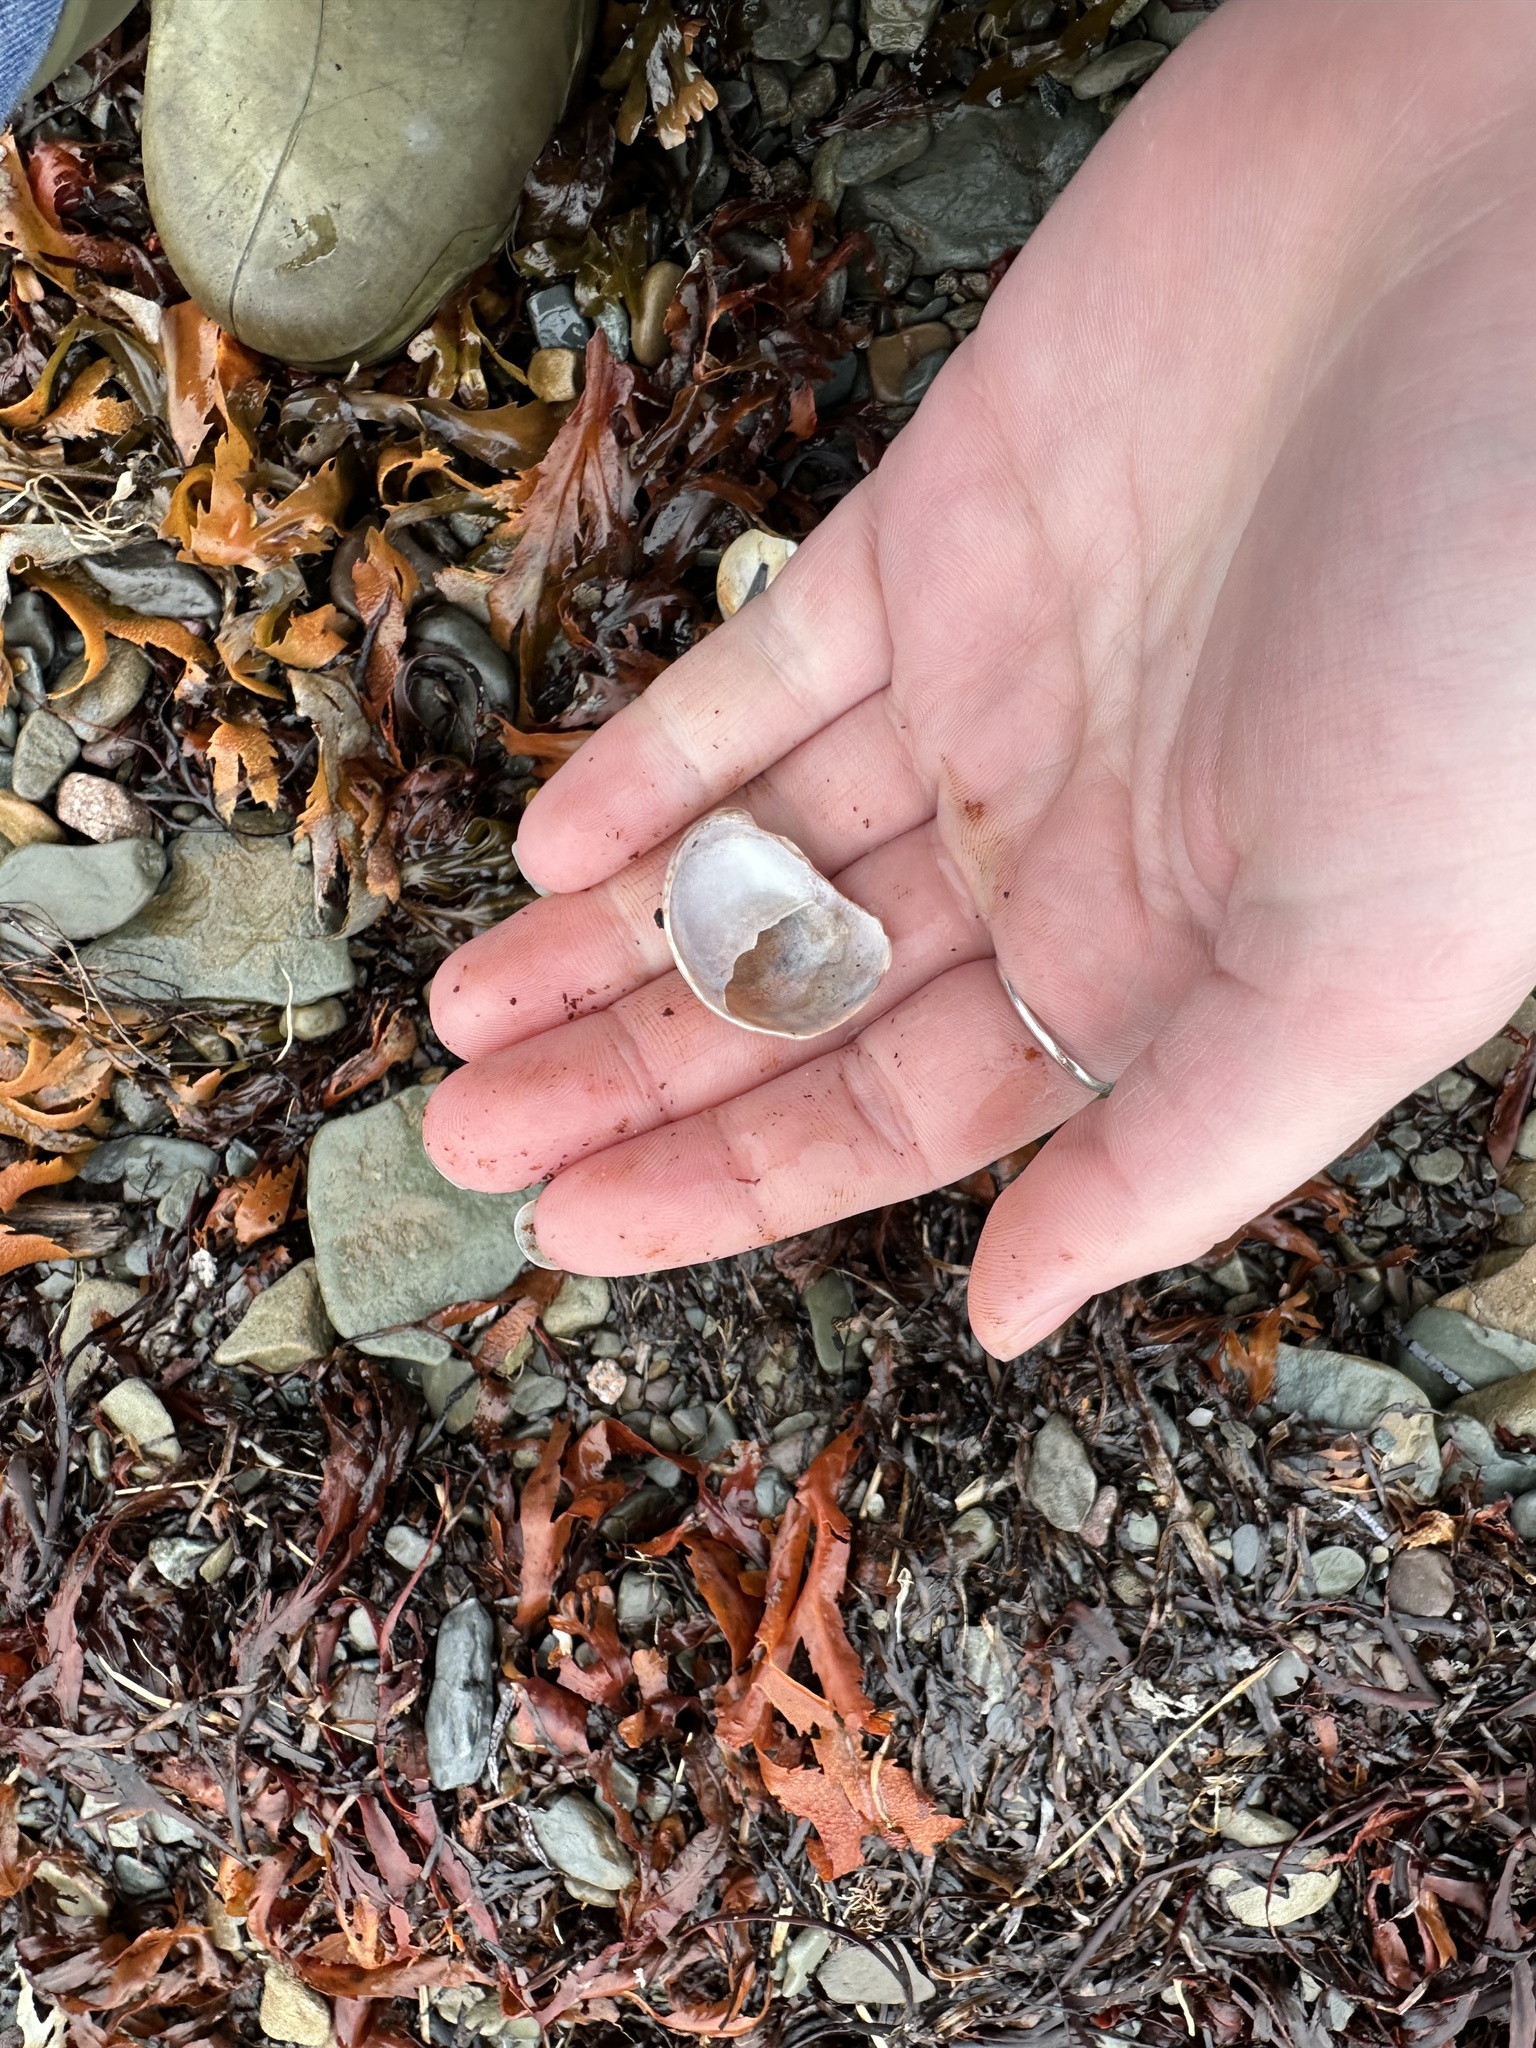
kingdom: Animalia
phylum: Mollusca
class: Gastropoda
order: Littorinimorpha
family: Calyptraeidae
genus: Crepidula
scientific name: Crepidula fornicata
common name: Slipper limpet
